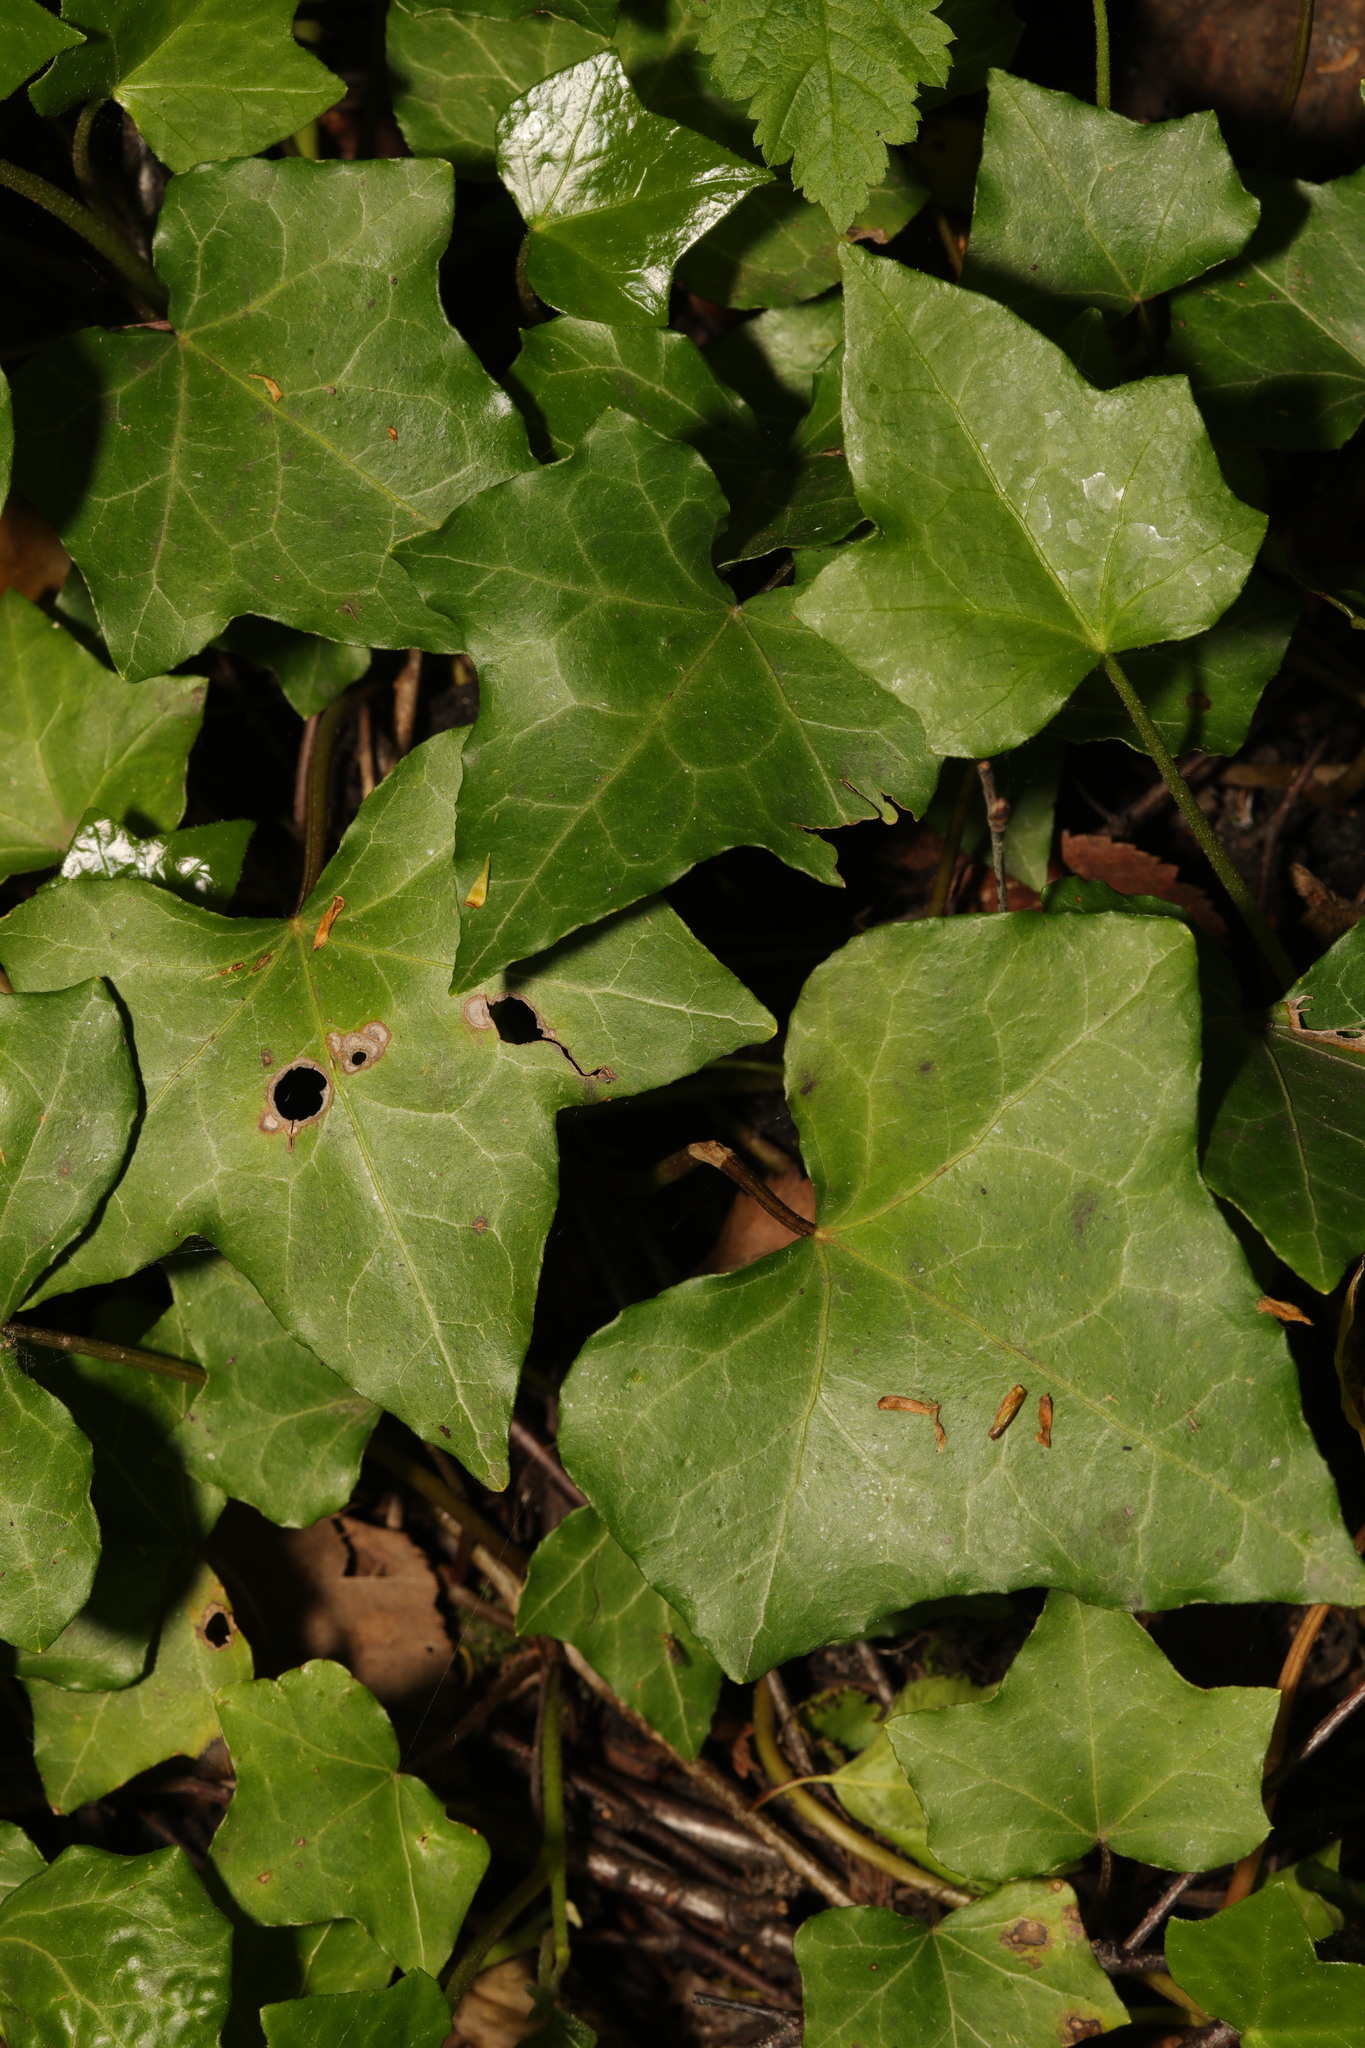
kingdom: Plantae
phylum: Tracheophyta
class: Magnoliopsida
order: Apiales
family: Araliaceae
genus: Hedera
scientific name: Hedera helix
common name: Ivy
